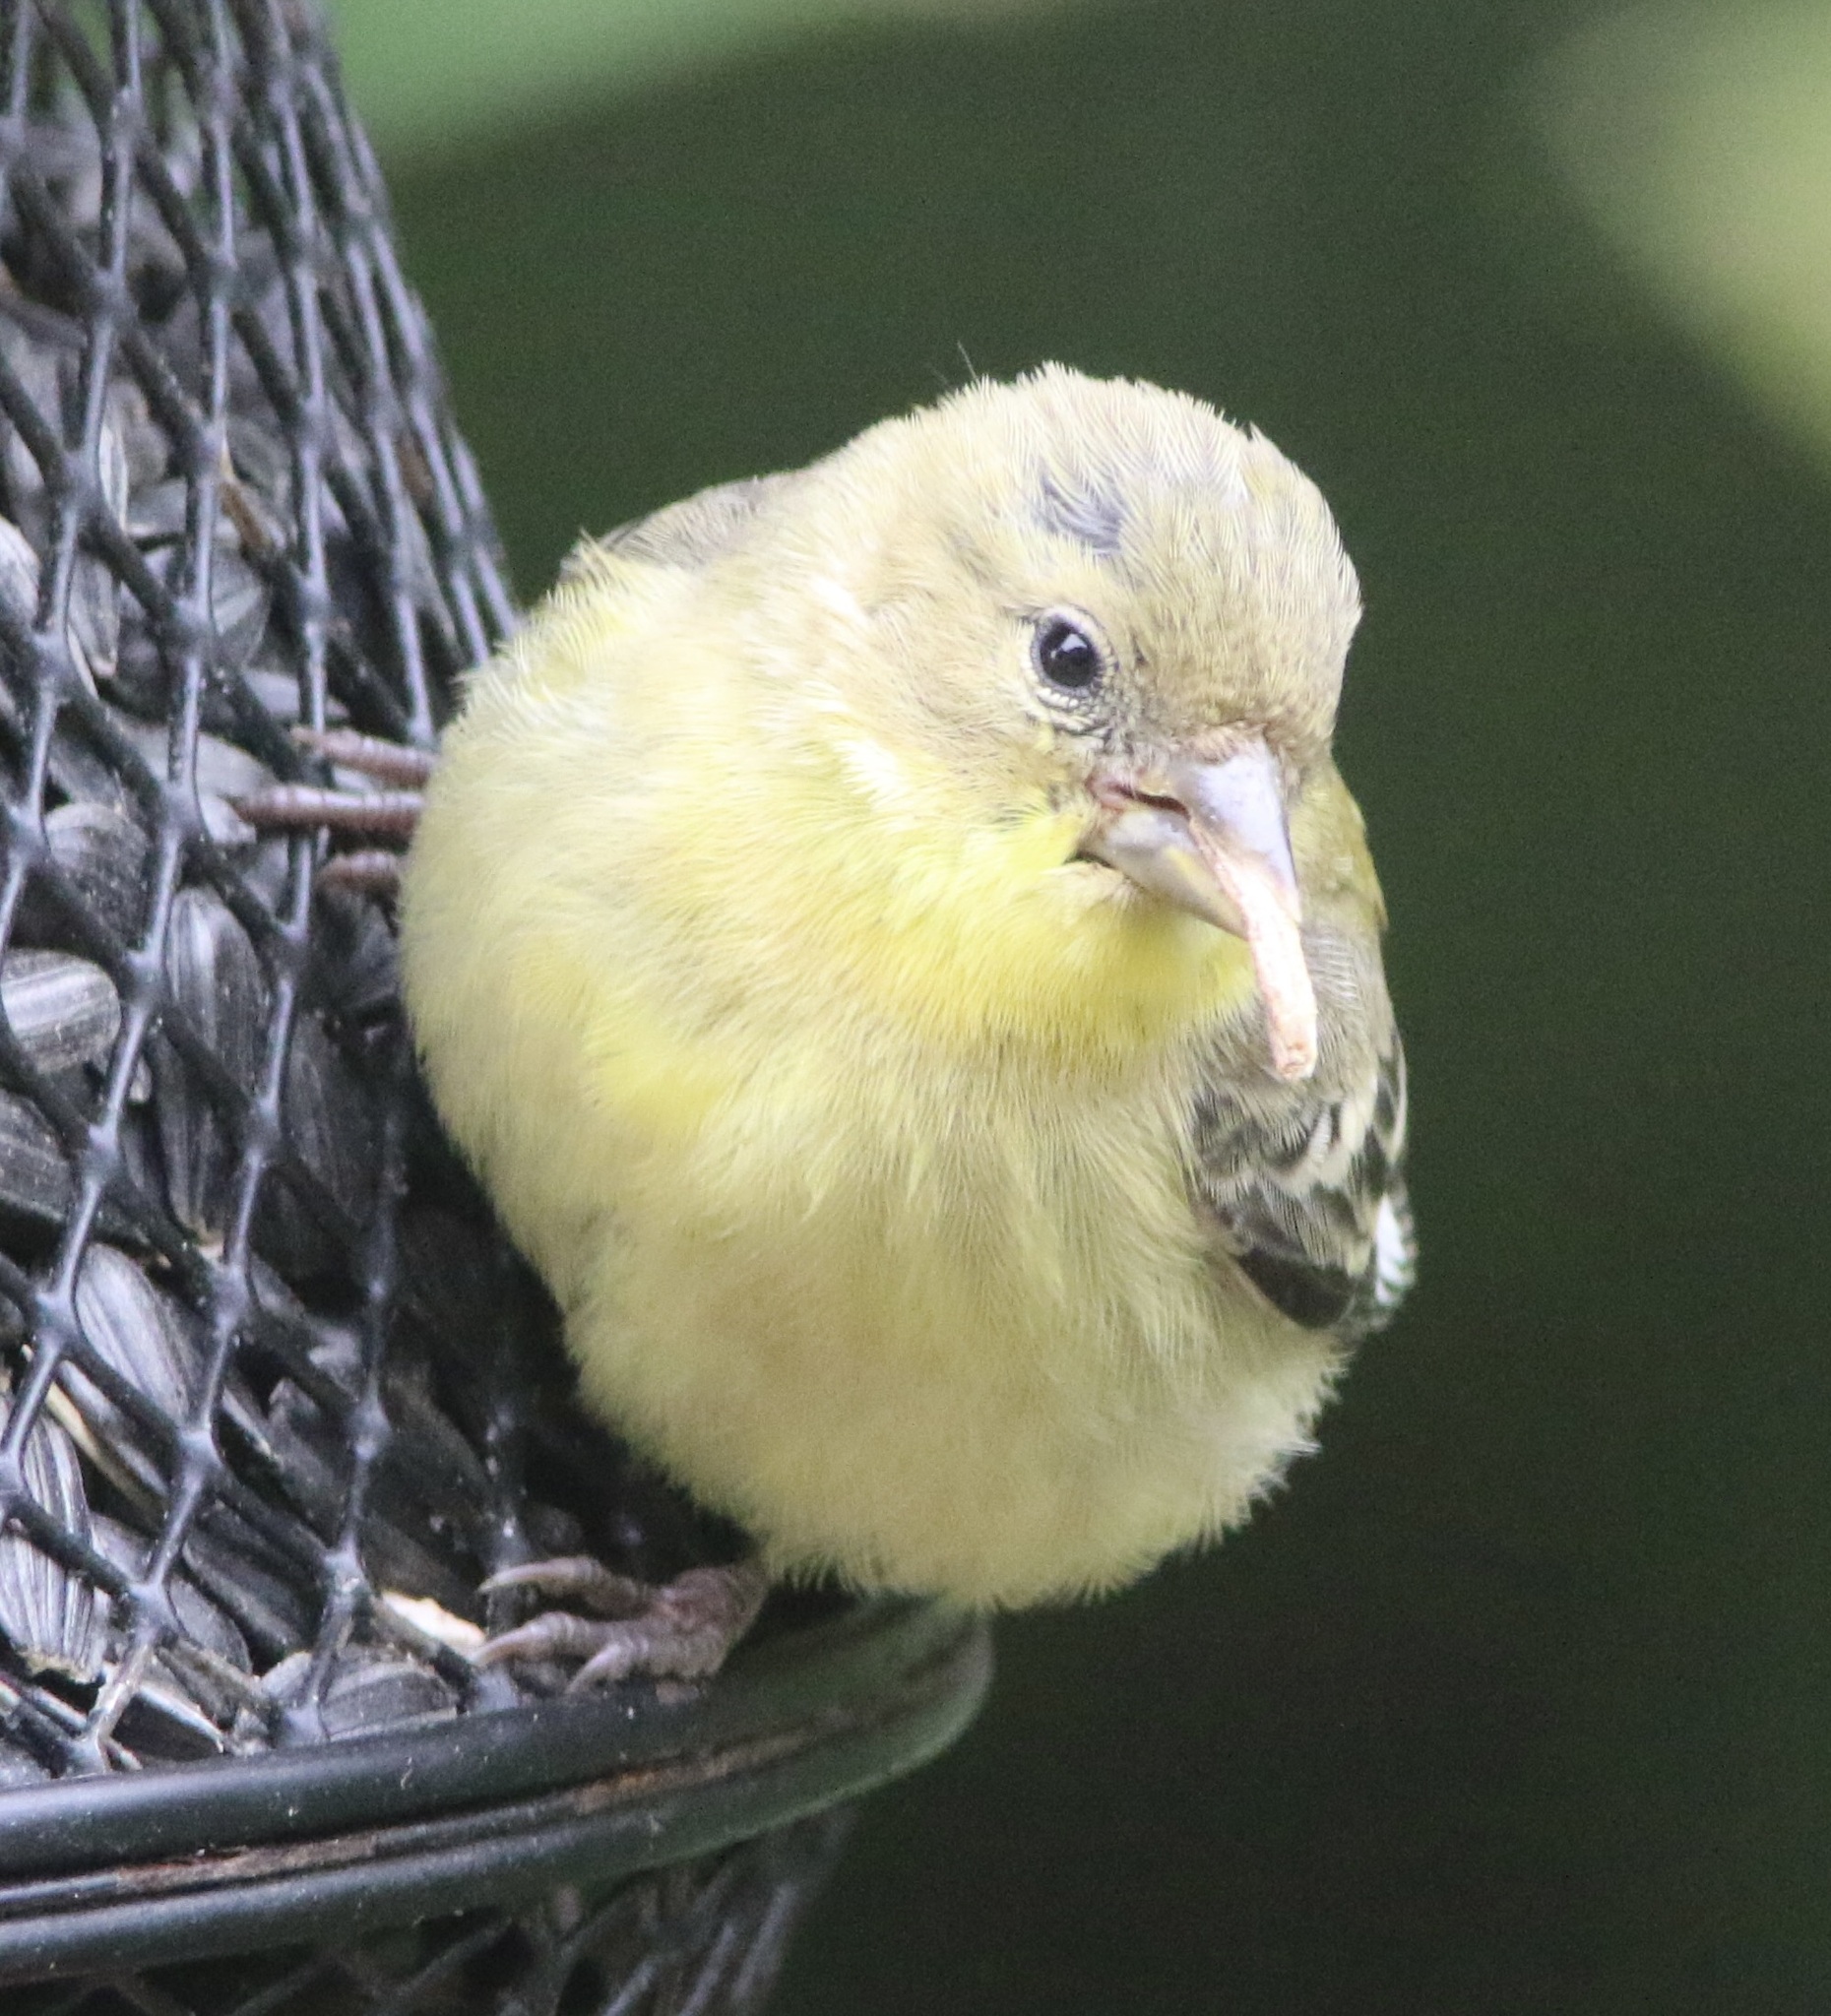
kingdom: Animalia
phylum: Chordata
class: Aves
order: Passeriformes
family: Fringillidae
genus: Spinus
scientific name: Spinus psaltria
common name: Lesser goldfinch
